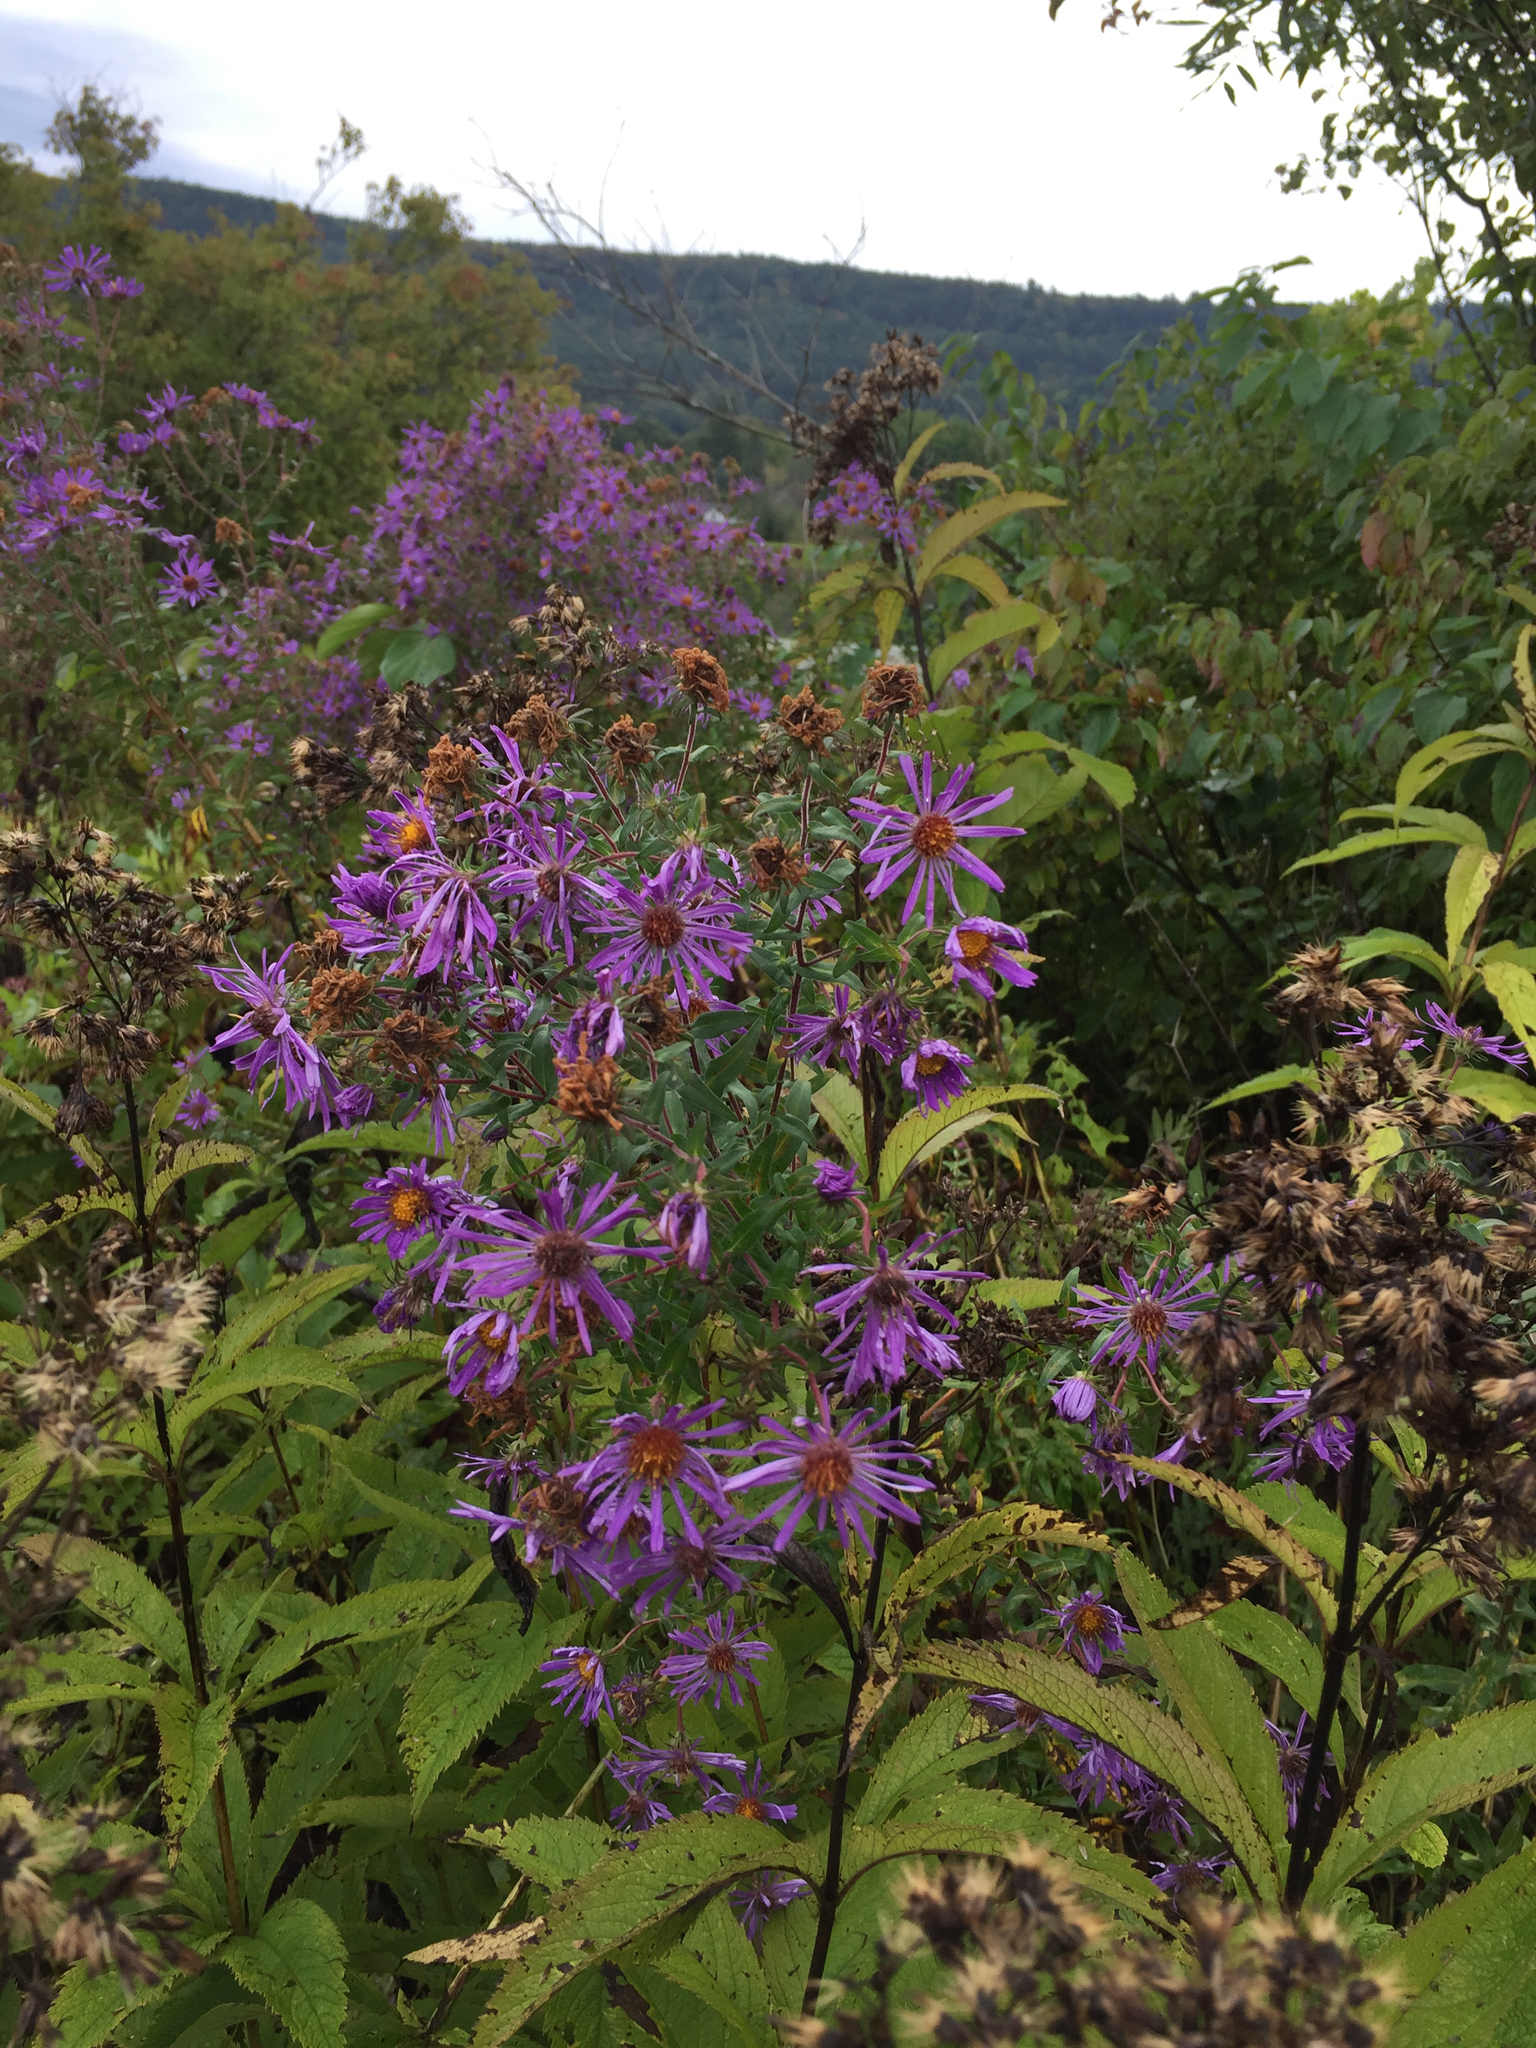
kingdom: Plantae
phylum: Tracheophyta
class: Magnoliopsida
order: Asterales
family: Asteraceae
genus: Symphyotrichum
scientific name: Symphyotrichum novae-angliae
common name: Michaelmas daisy
